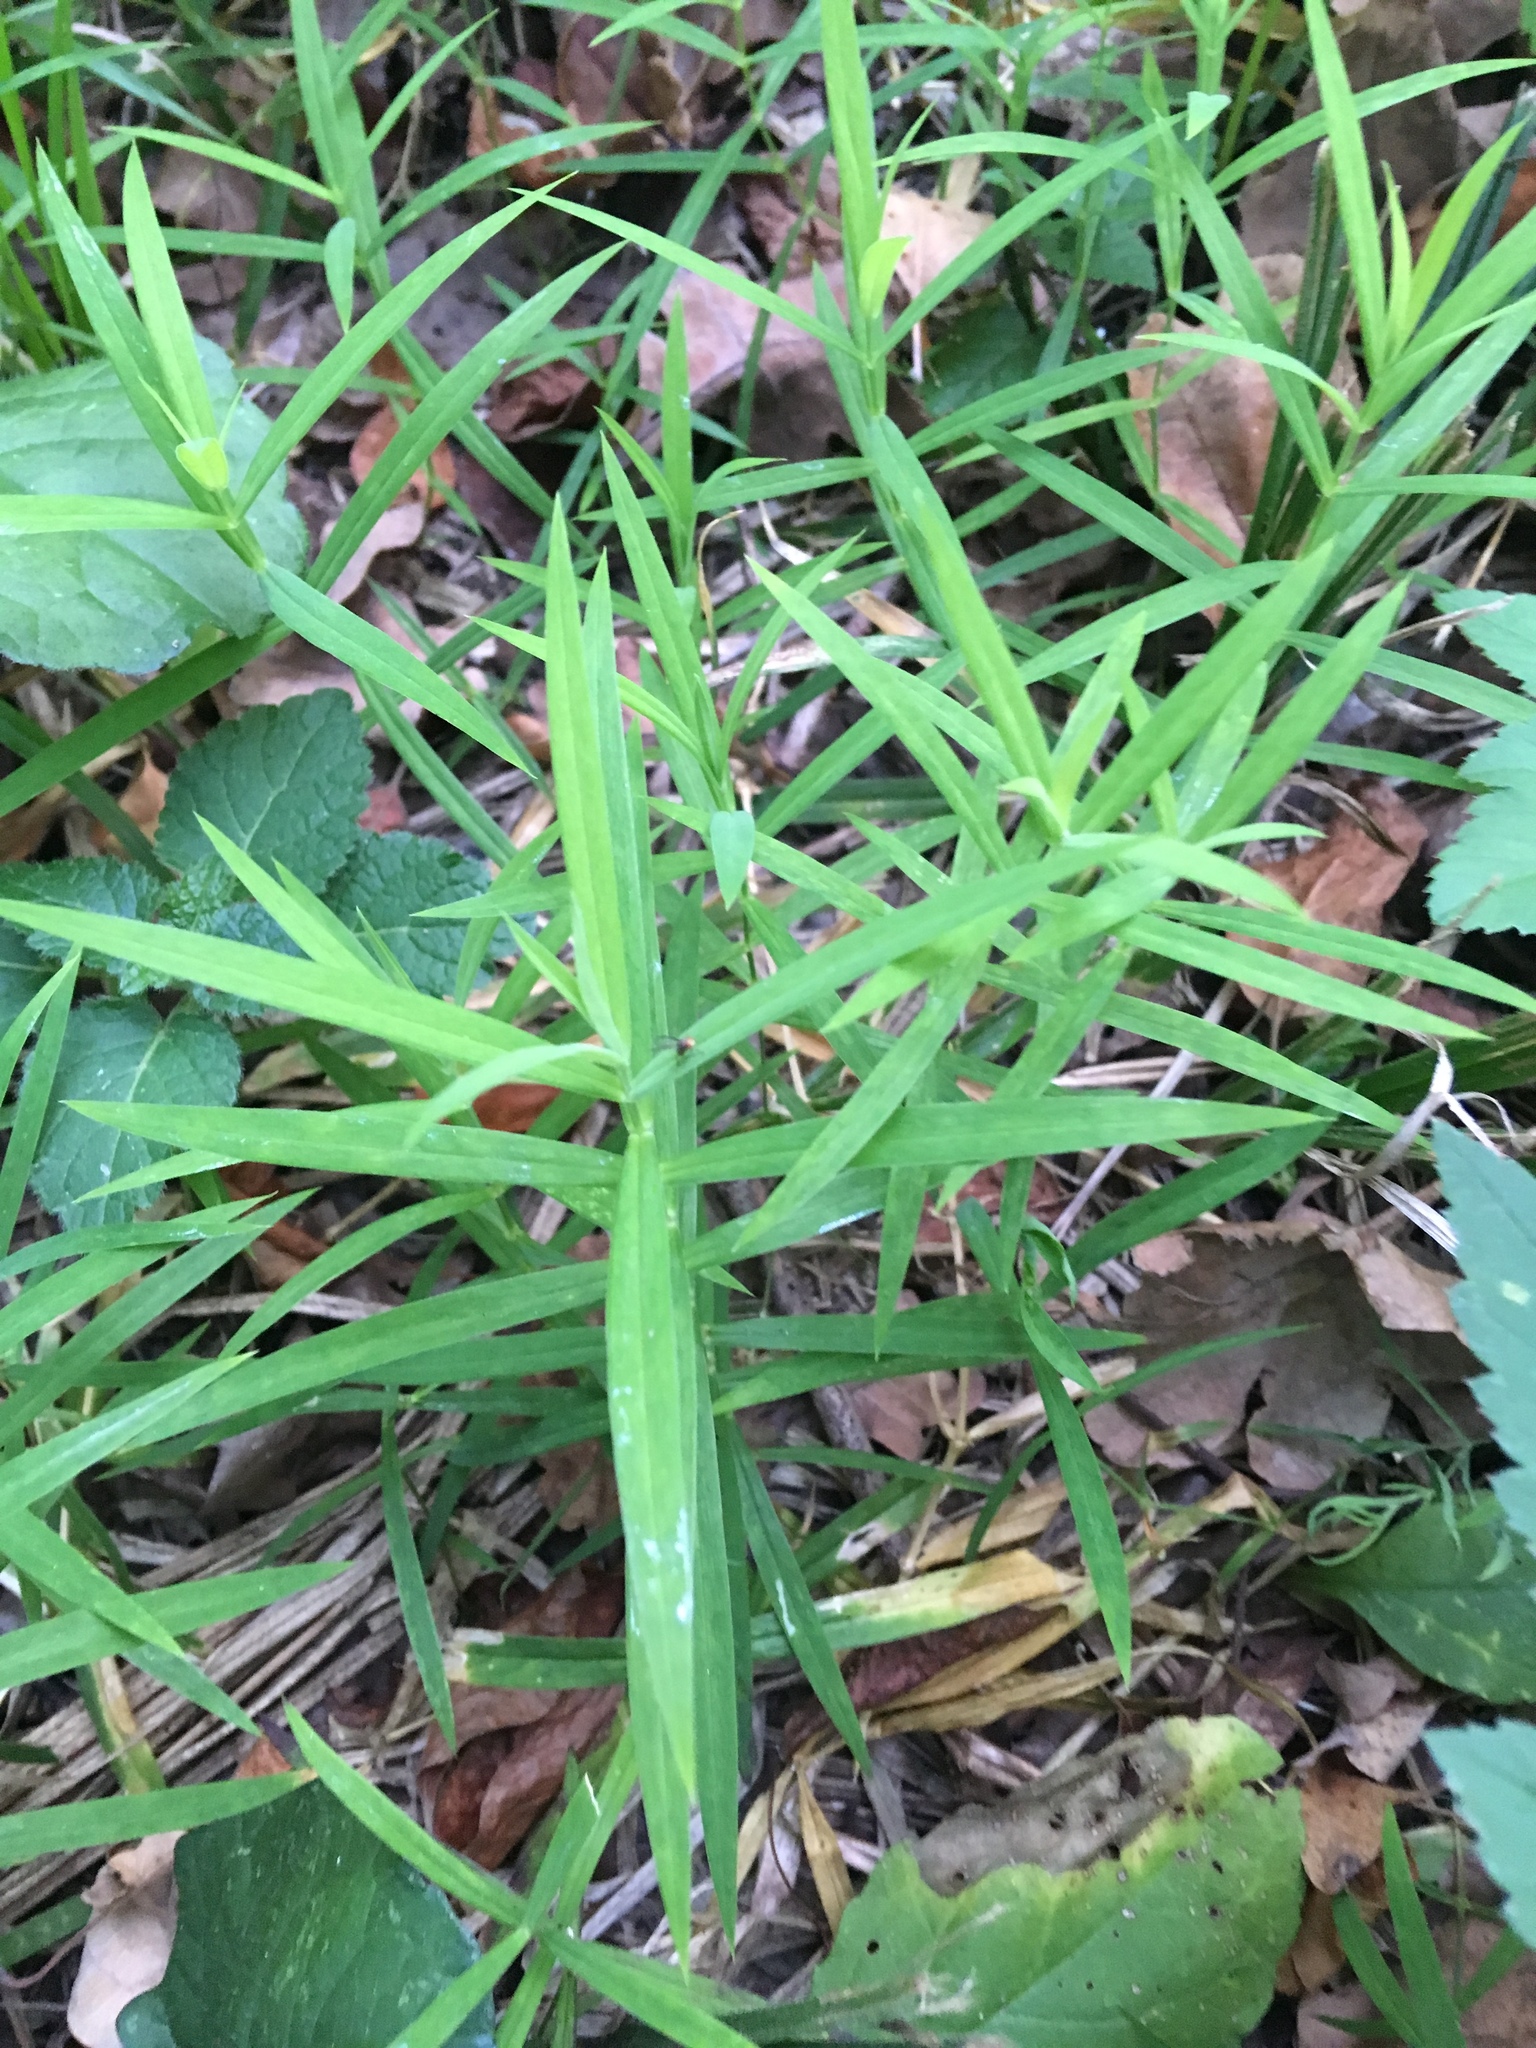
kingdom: Plantae
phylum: Tracheophyta
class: Magnoliopsida
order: Caryophyllales
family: Caryophyllaceae
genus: Rabelera
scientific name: Rabelera holostea
